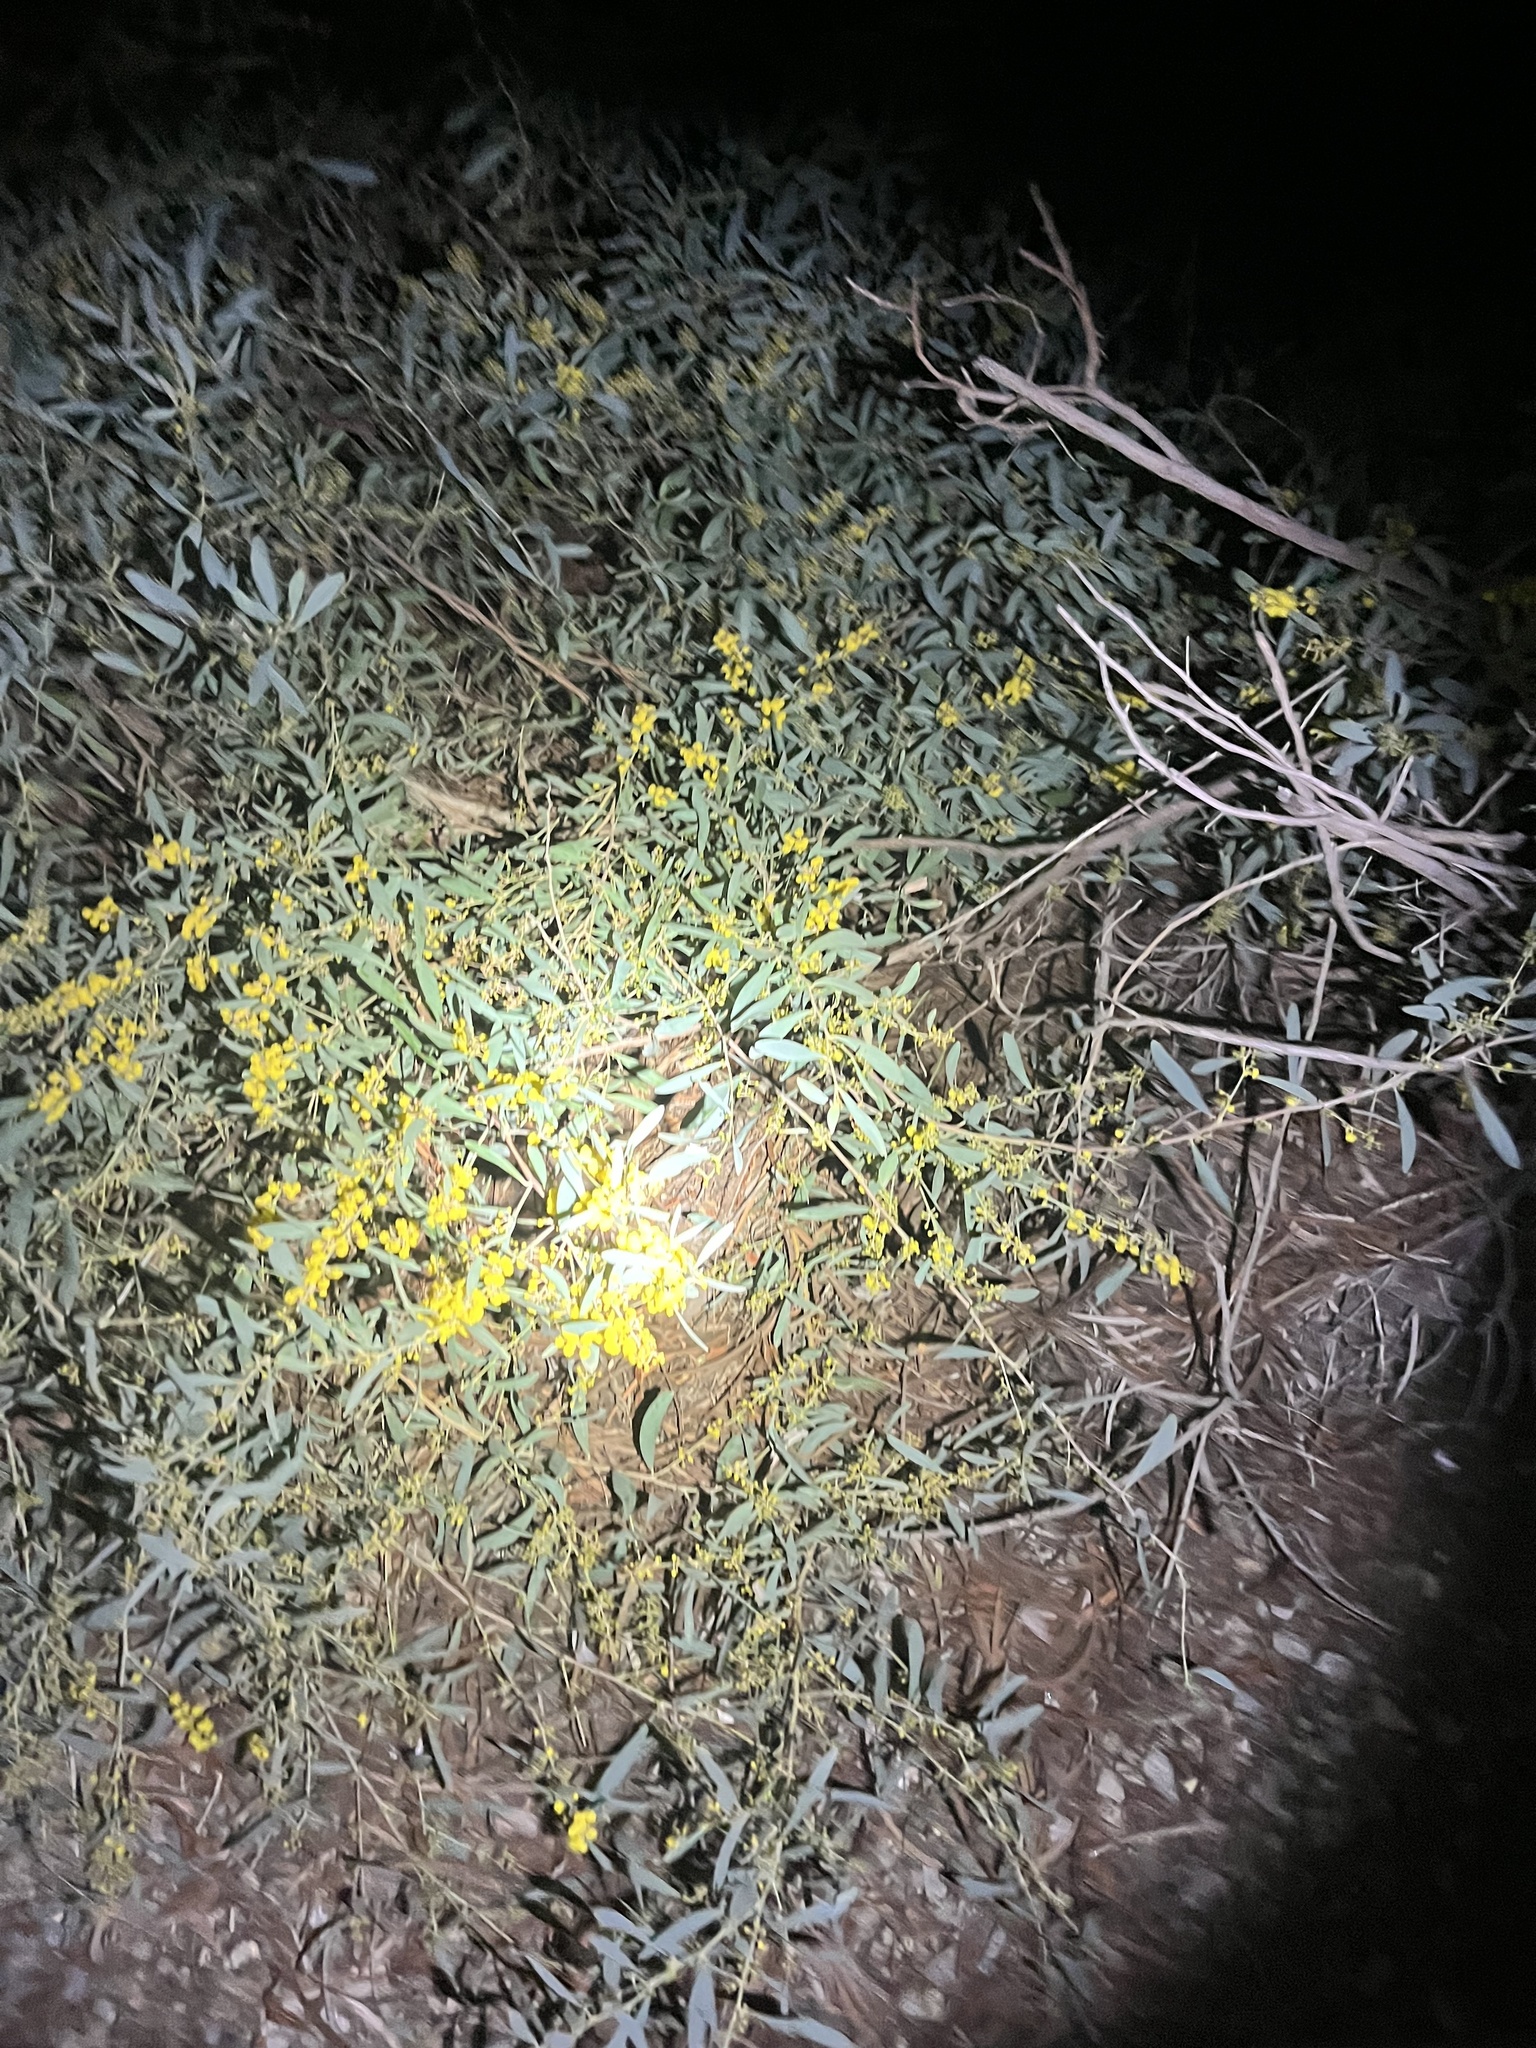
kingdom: Plantae
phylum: Tracheophyta
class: Magnoliopsida
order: Fabales
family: Fabaceae
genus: Acacia
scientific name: Acacia redolens
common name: Bank catclaw
